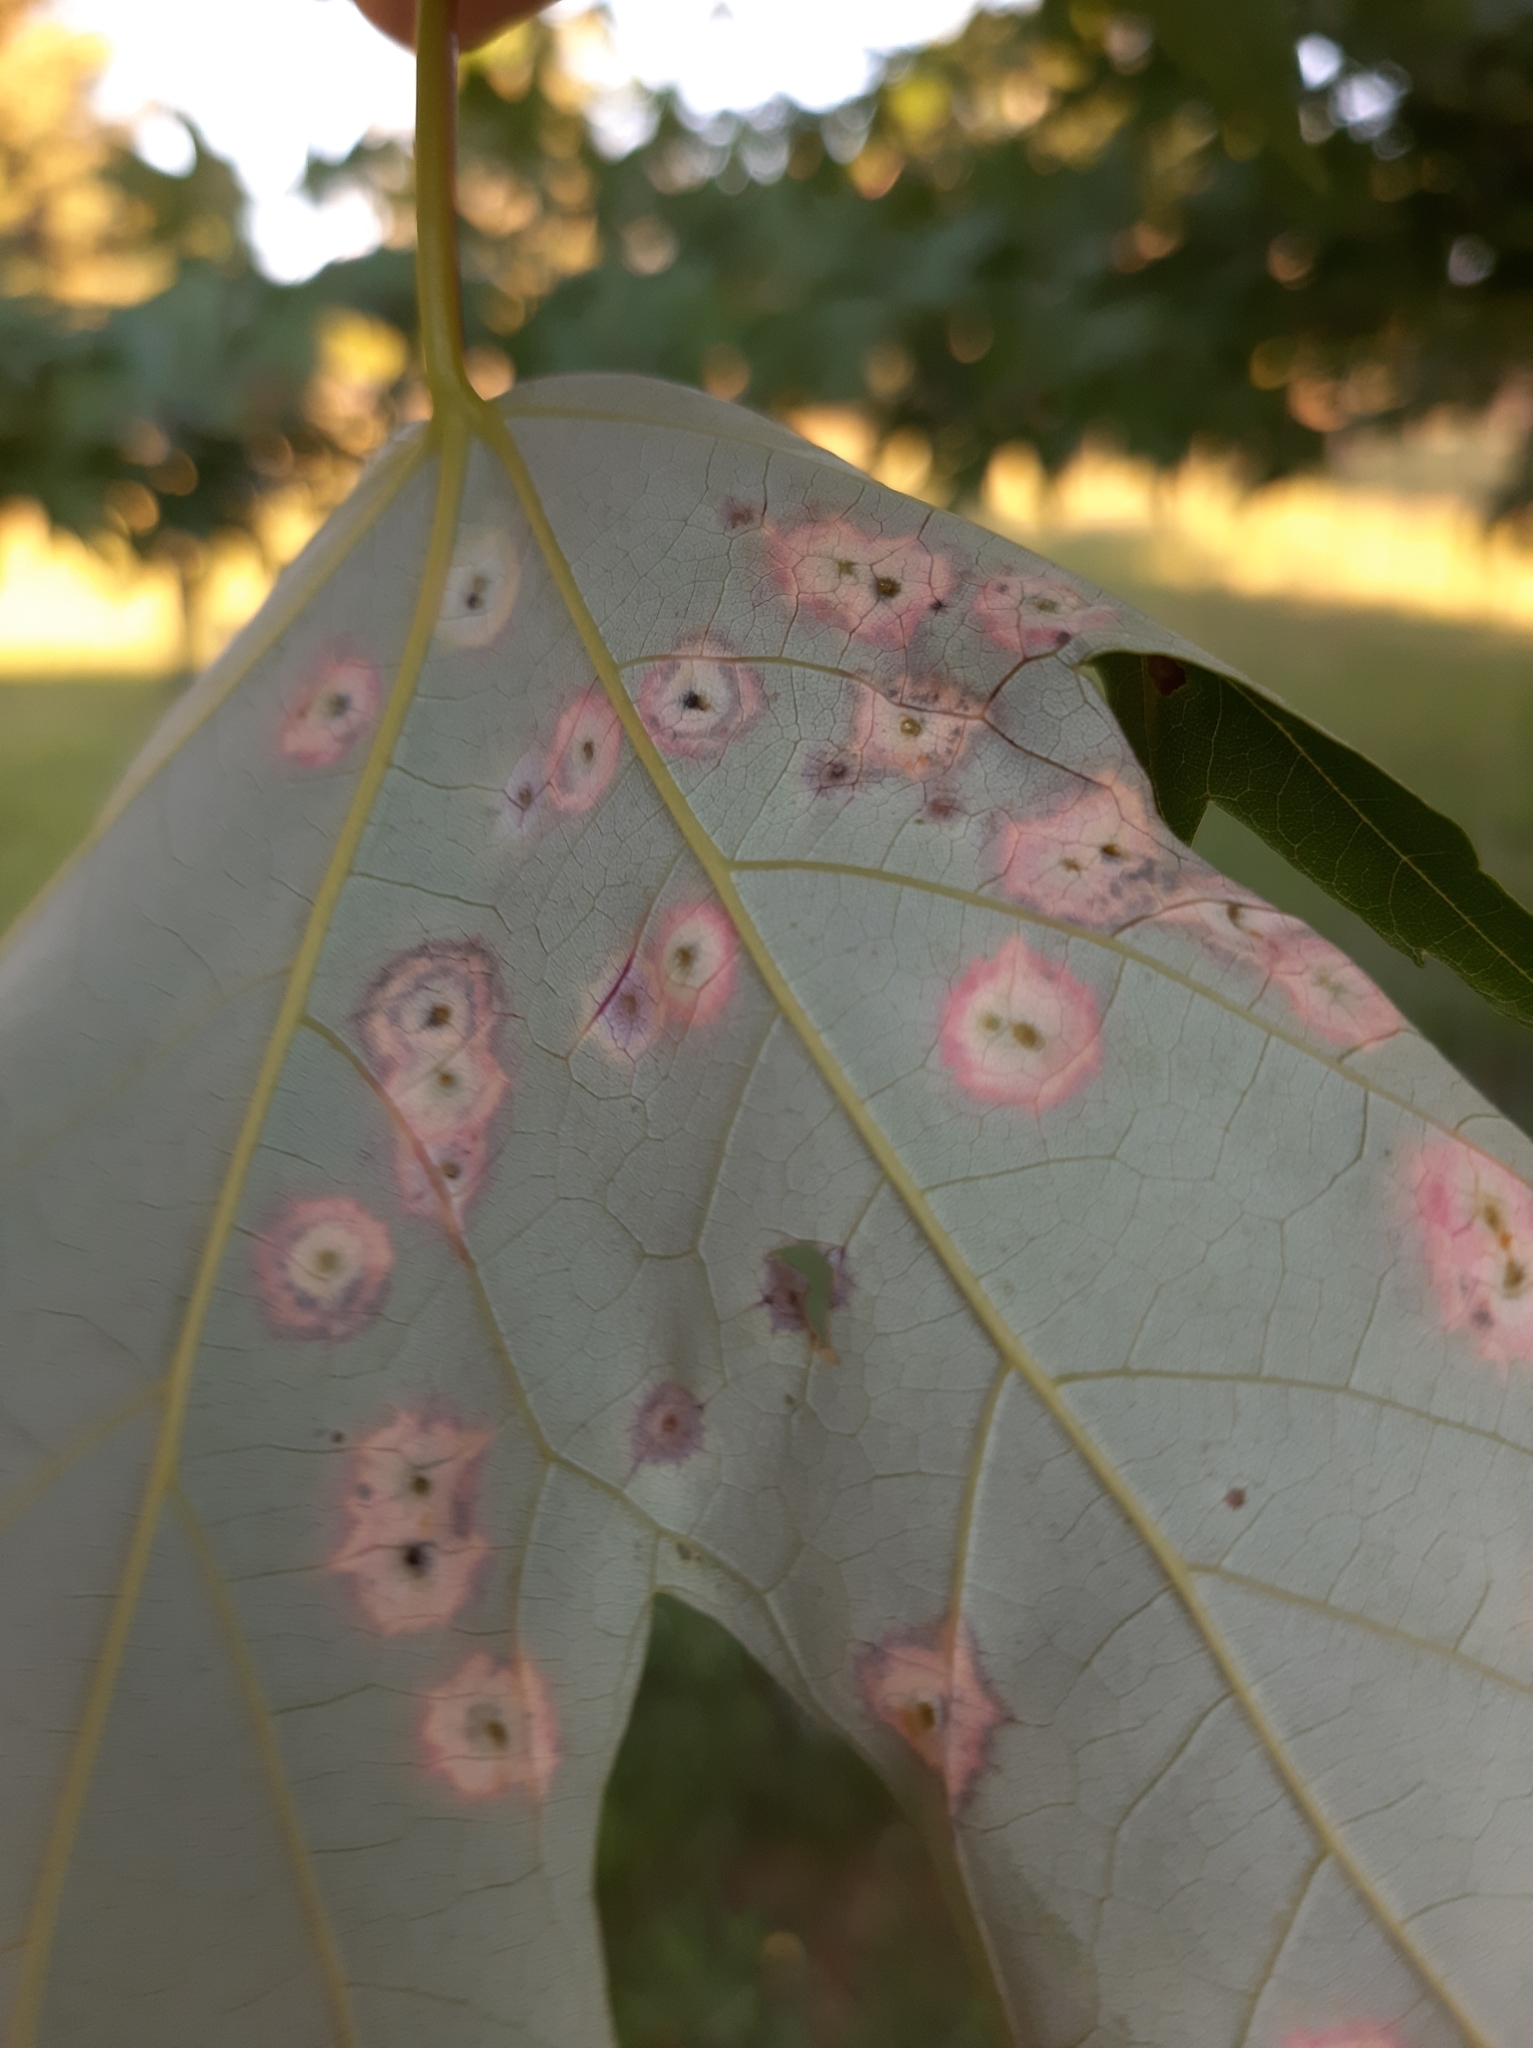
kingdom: Animalia
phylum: Arthropoda
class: Insecta
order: Diptera
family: Cecidomyiidae
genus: Acericecis
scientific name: Acericecis ocellaris
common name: Ocellate gall midge
